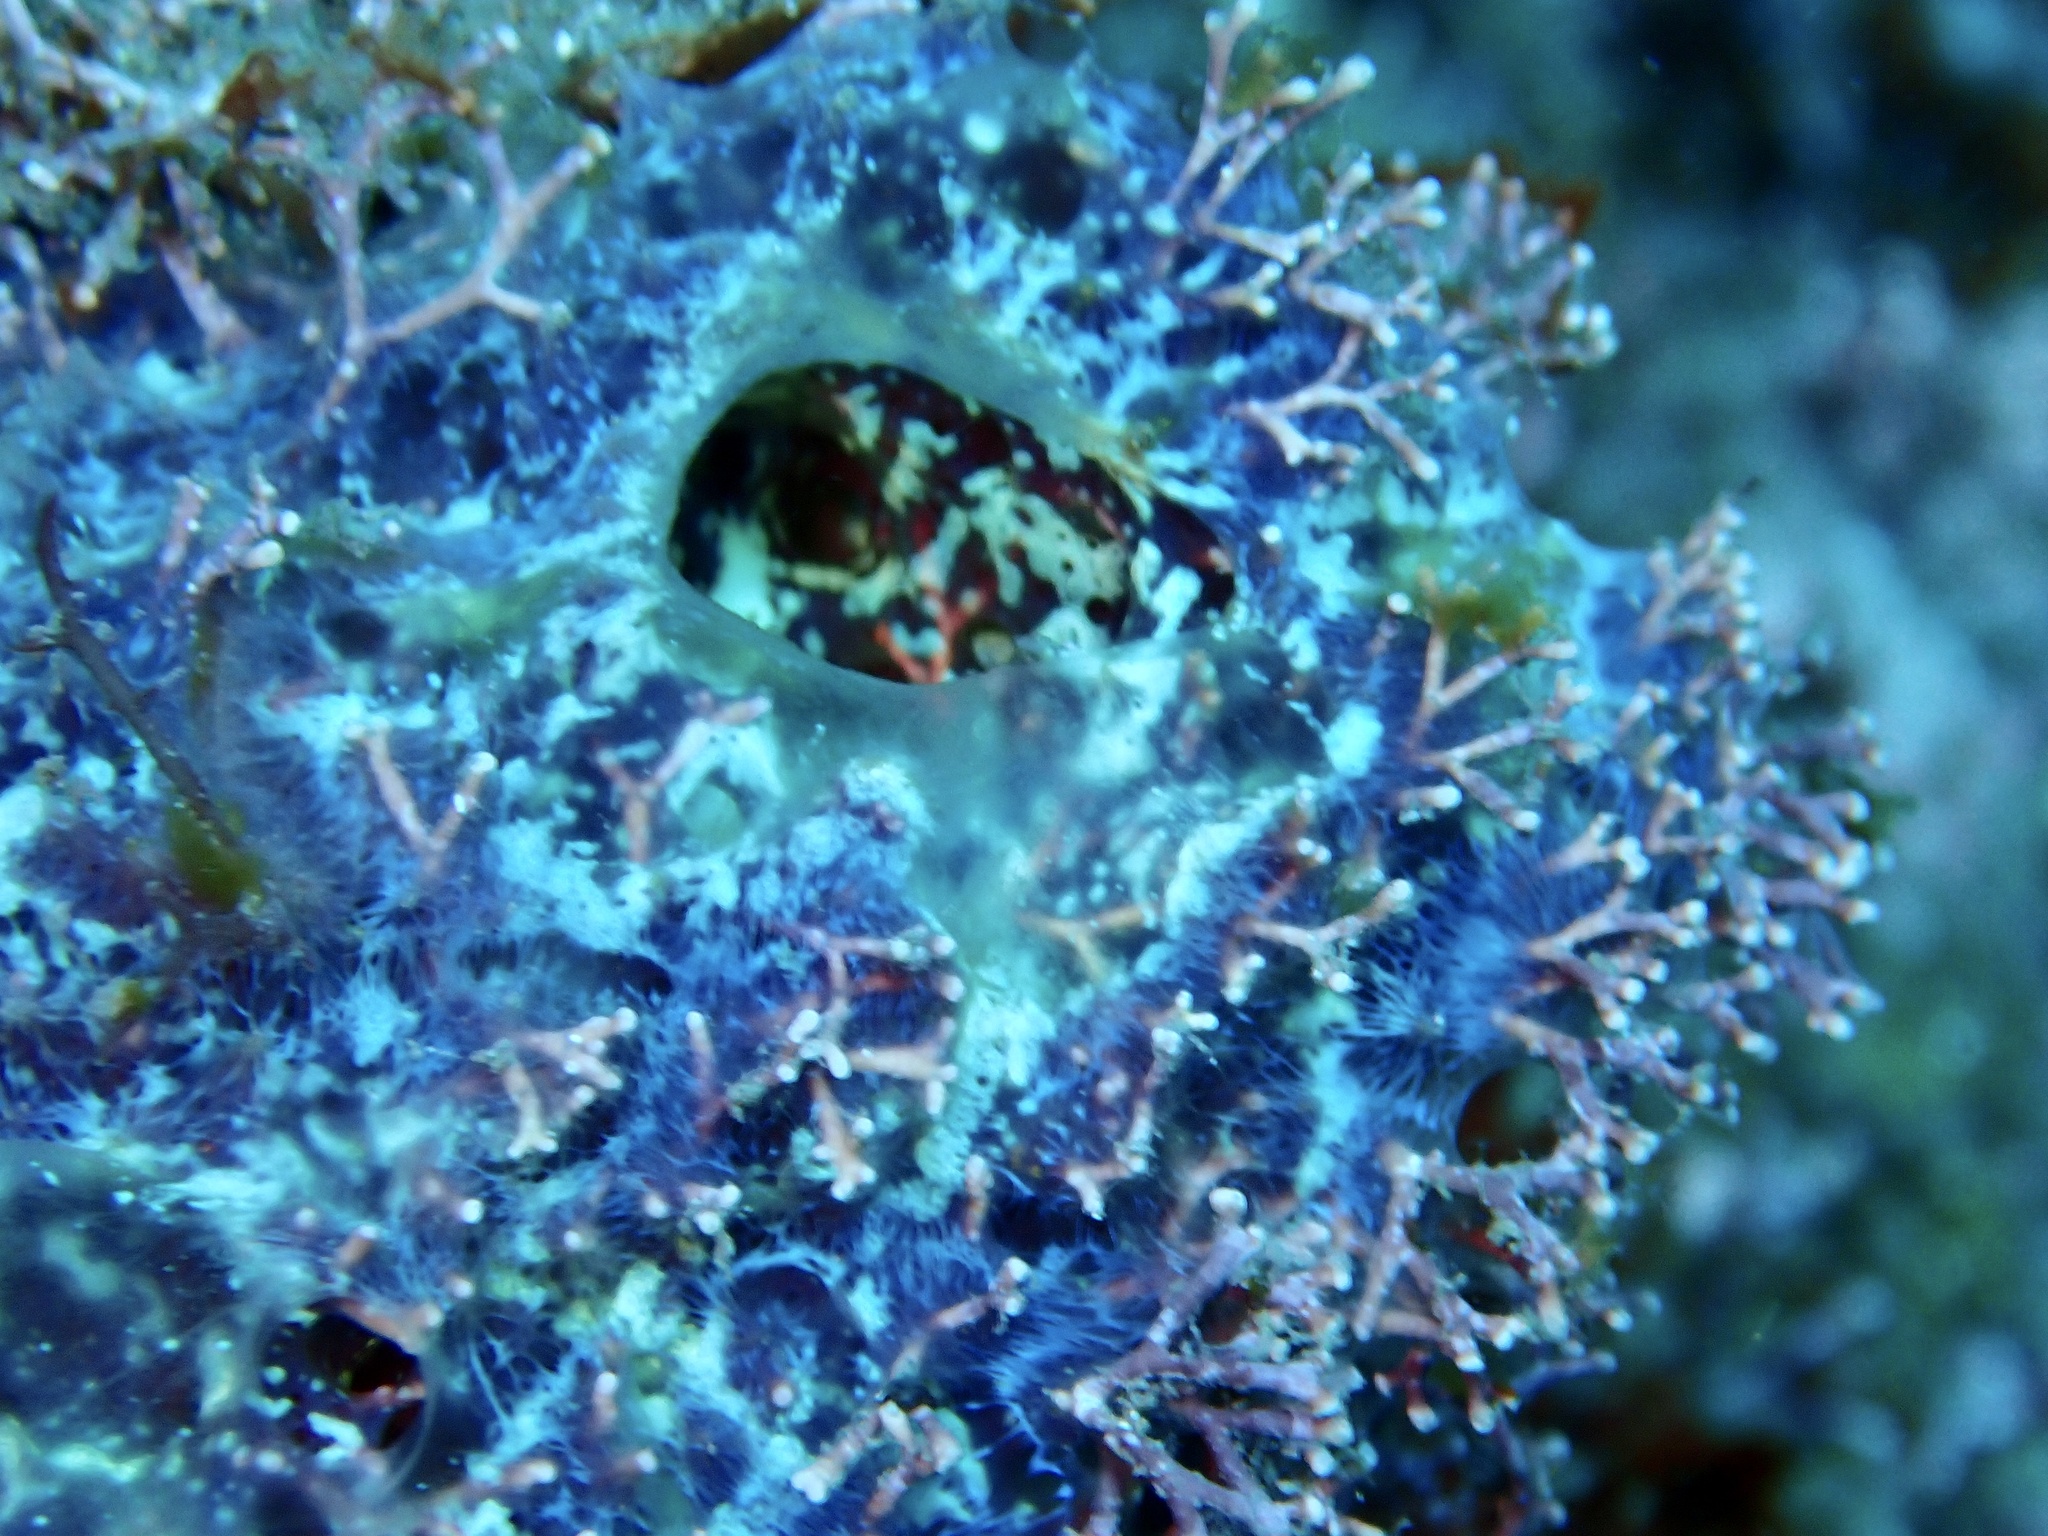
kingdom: Animalia
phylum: Porifera
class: Demospongiae
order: Poecilosclerida
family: Mycalidae
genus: Mycale
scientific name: Mycale laxissima
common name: Strawberry vase sponge
